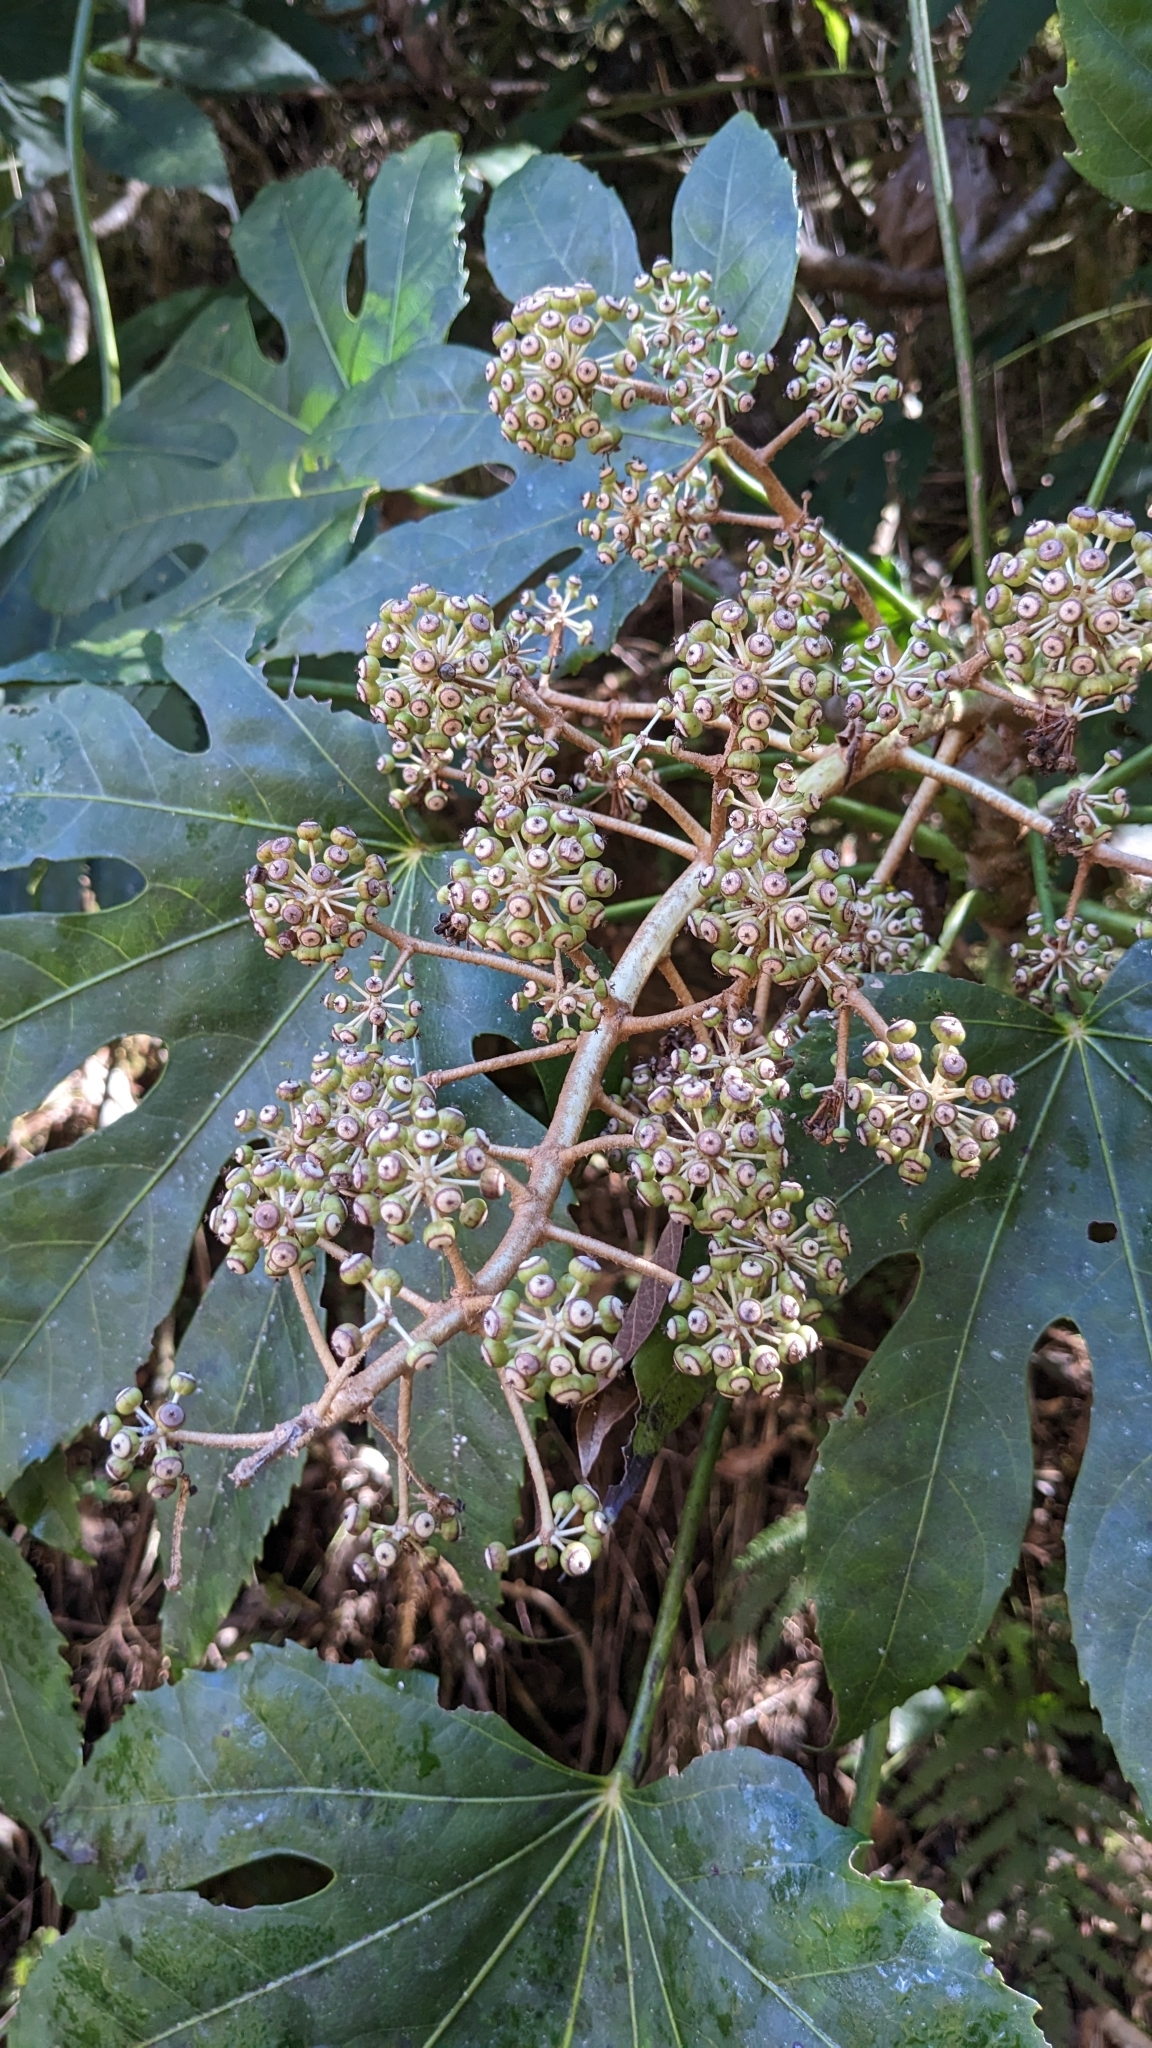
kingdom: Plantae
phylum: Tracheophyta
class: Magnoliopsida
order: Apiales
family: Araliaceae
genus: Fatsia
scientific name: Fatsia polycarpa
